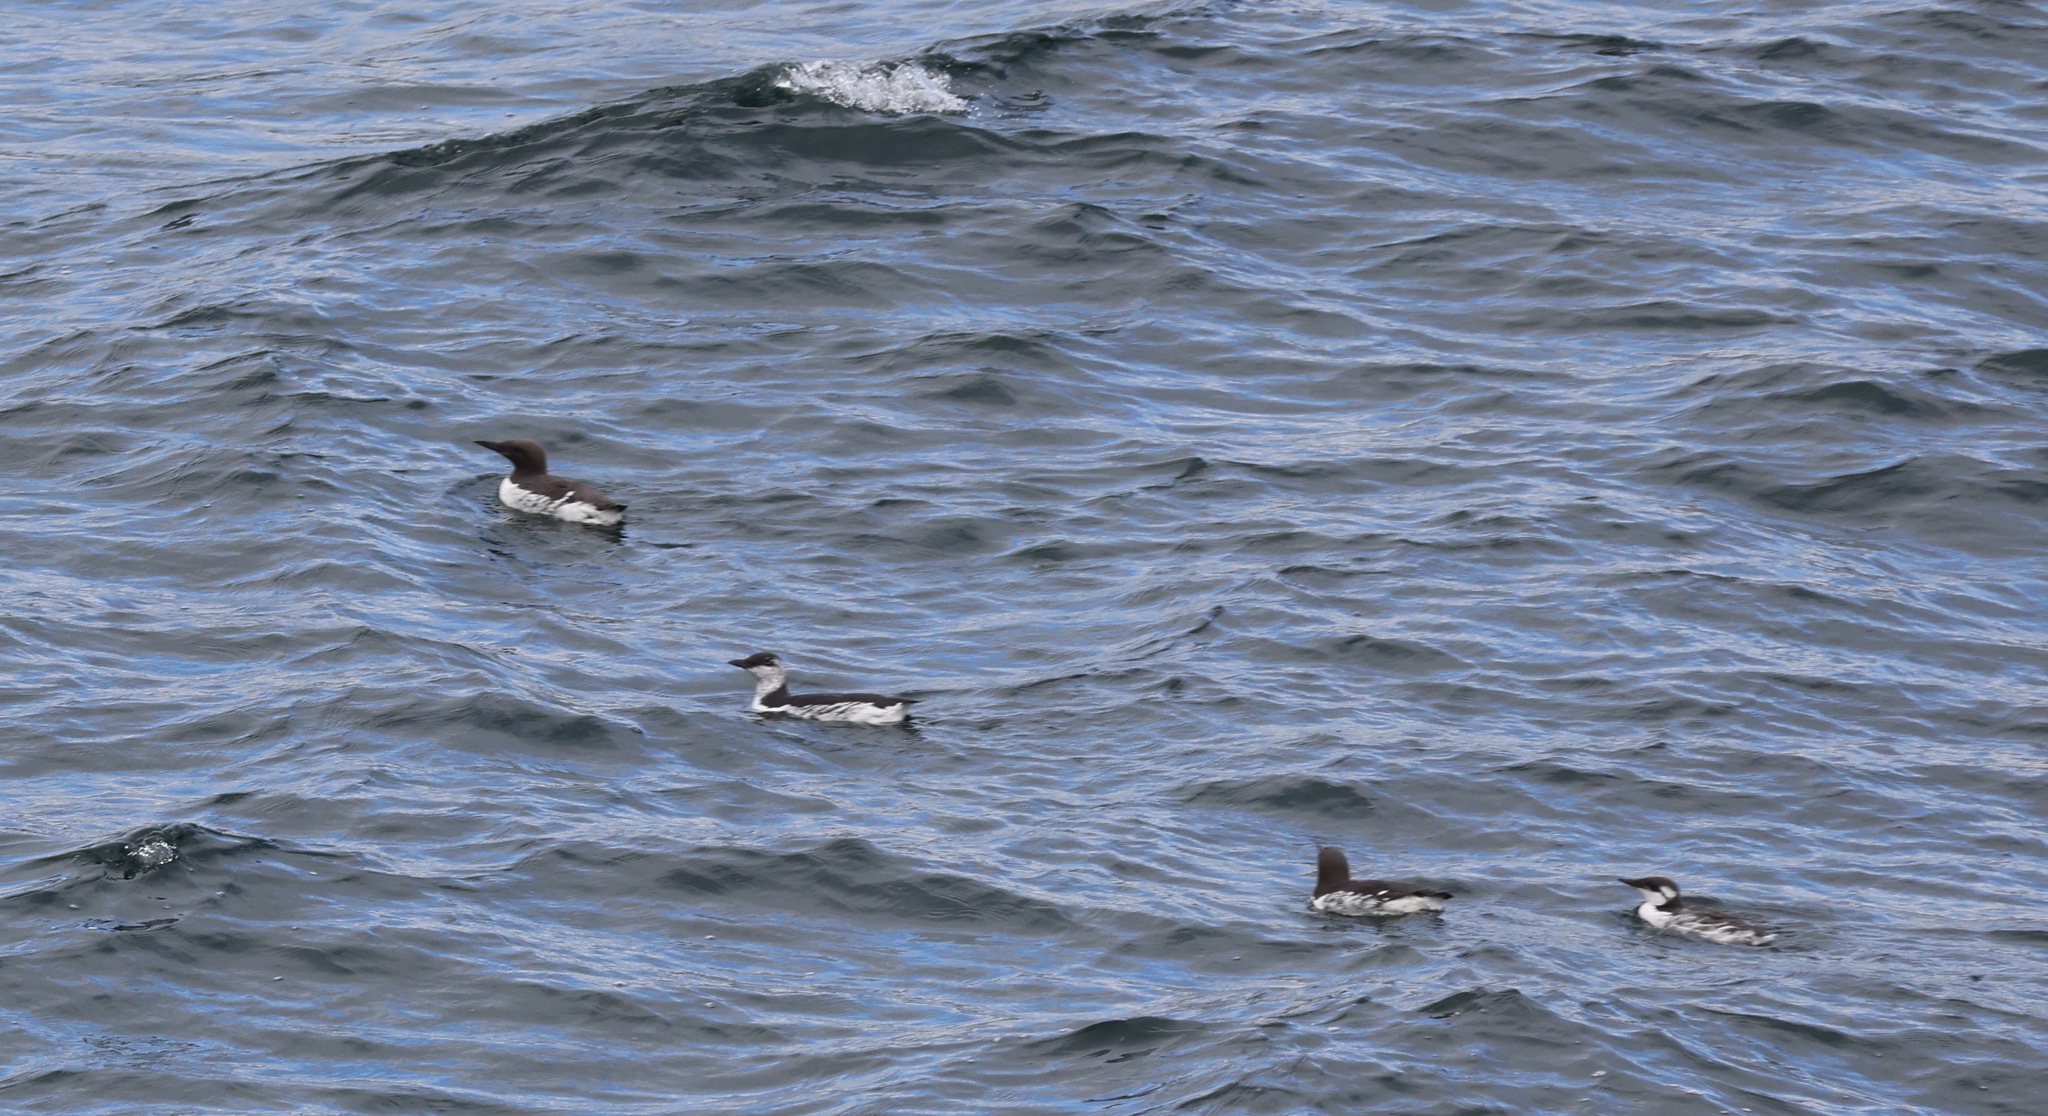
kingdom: Animalia
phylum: Chordata
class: Aves
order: Charadriiformes
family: Alcidae
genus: Uria
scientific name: Uria aalge
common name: Common murre
